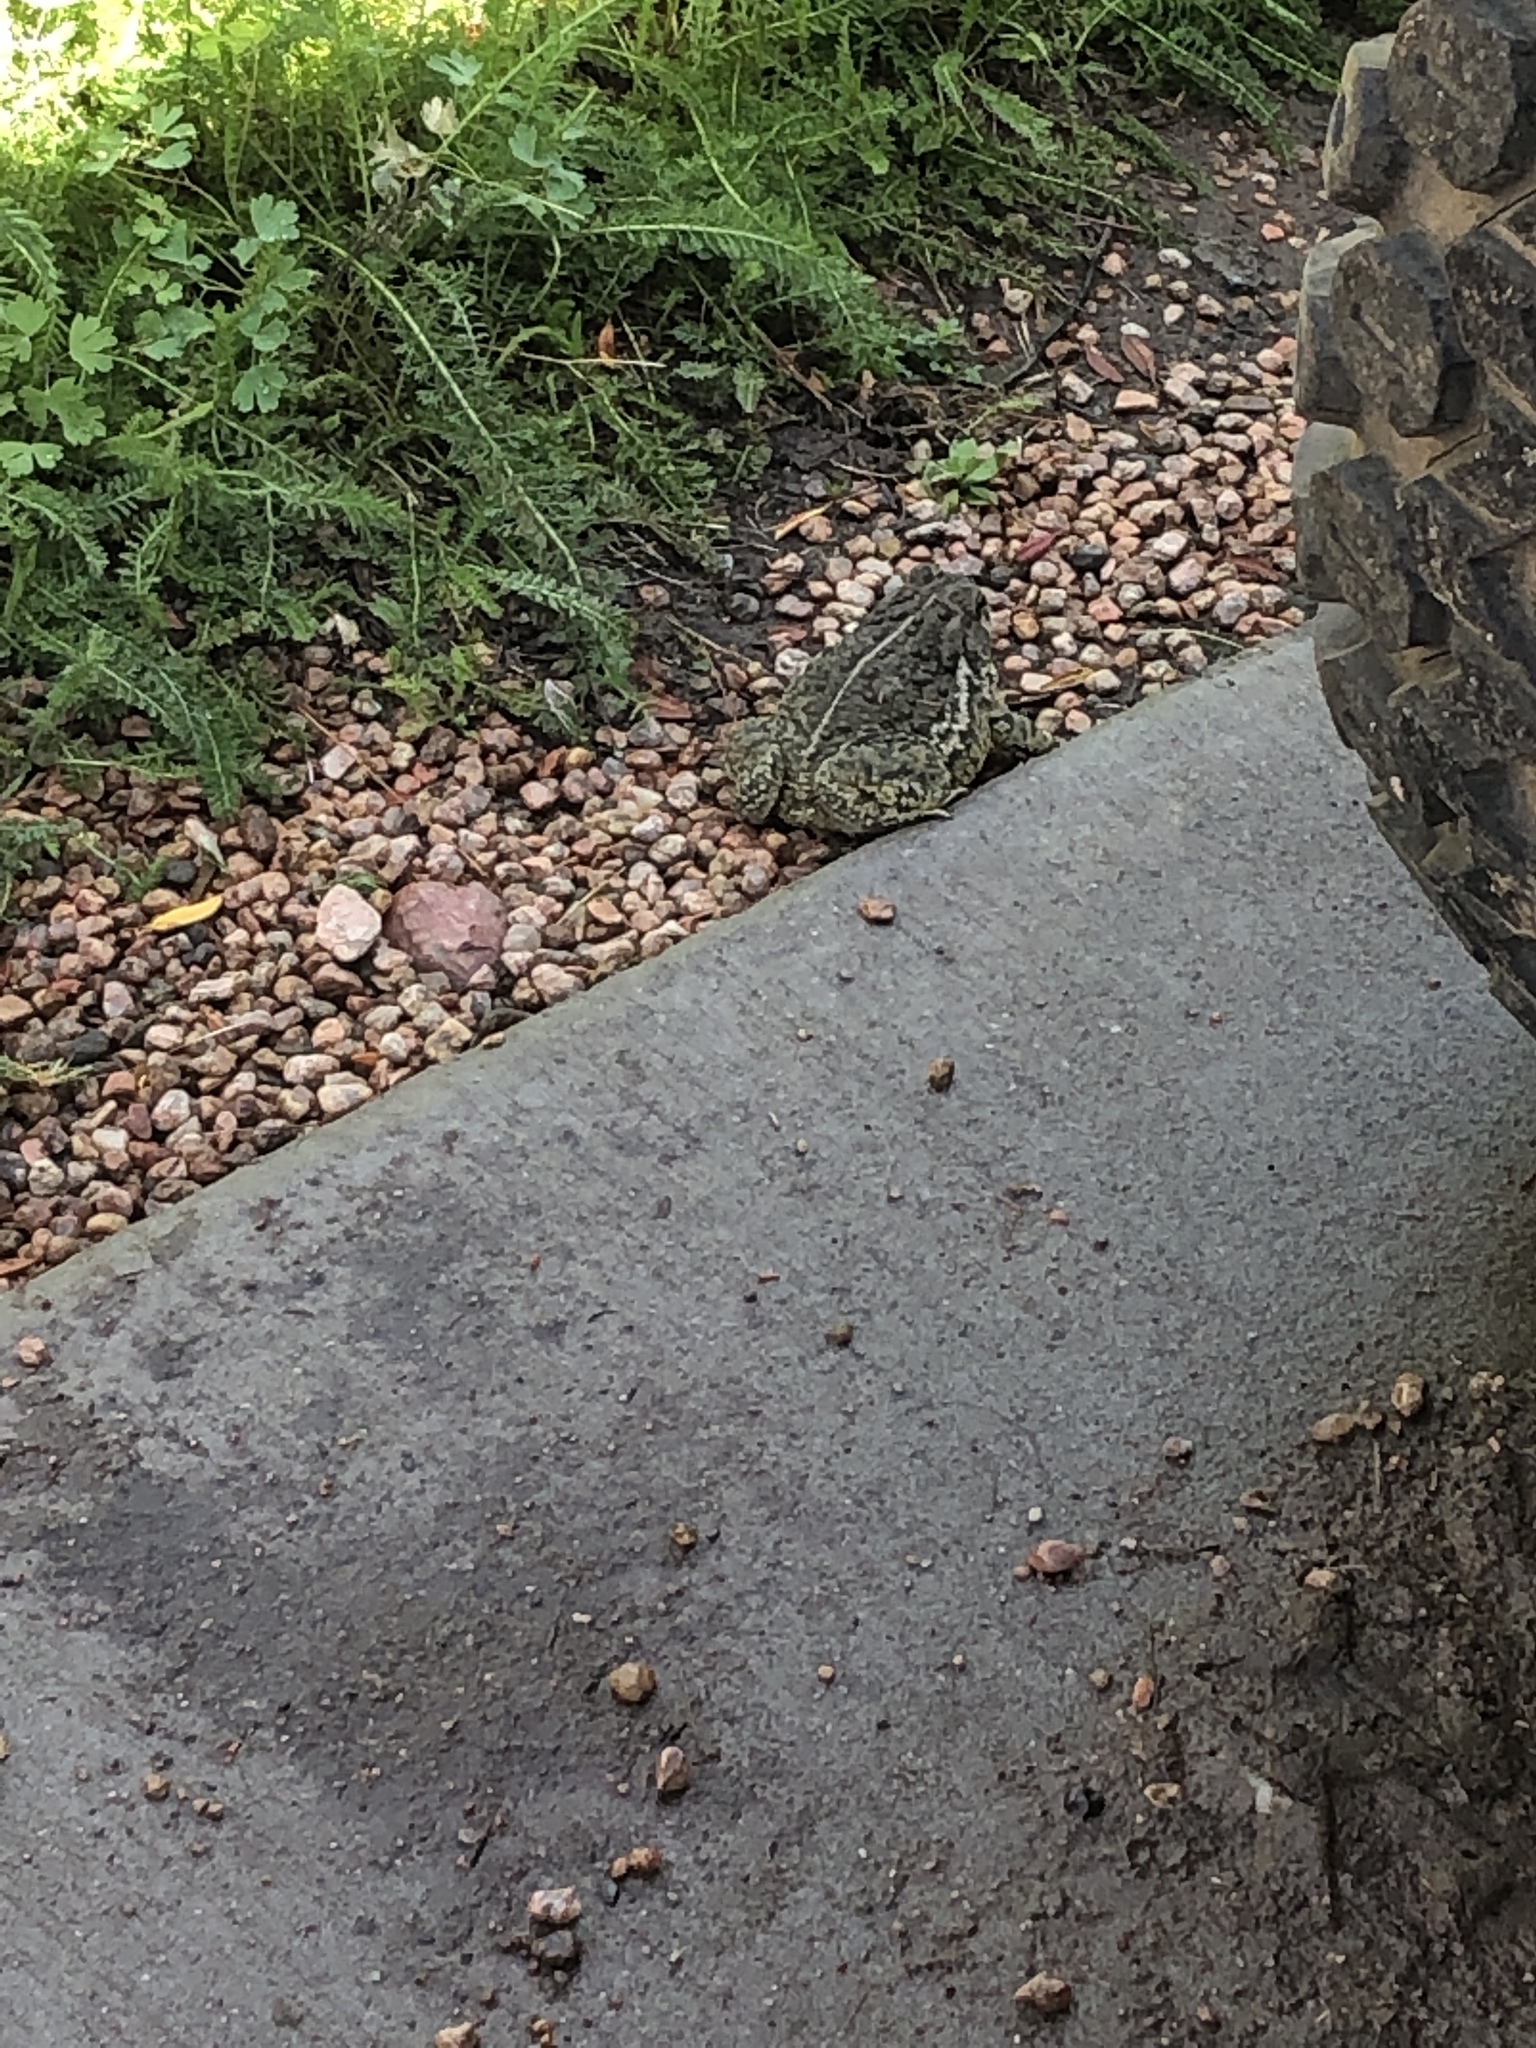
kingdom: Animalia
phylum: Chordata
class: Amphibia
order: Anura
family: Bufonidae
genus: Anaxyrus
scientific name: Anaxyrus woodhousii
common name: Woodhouse's toad
